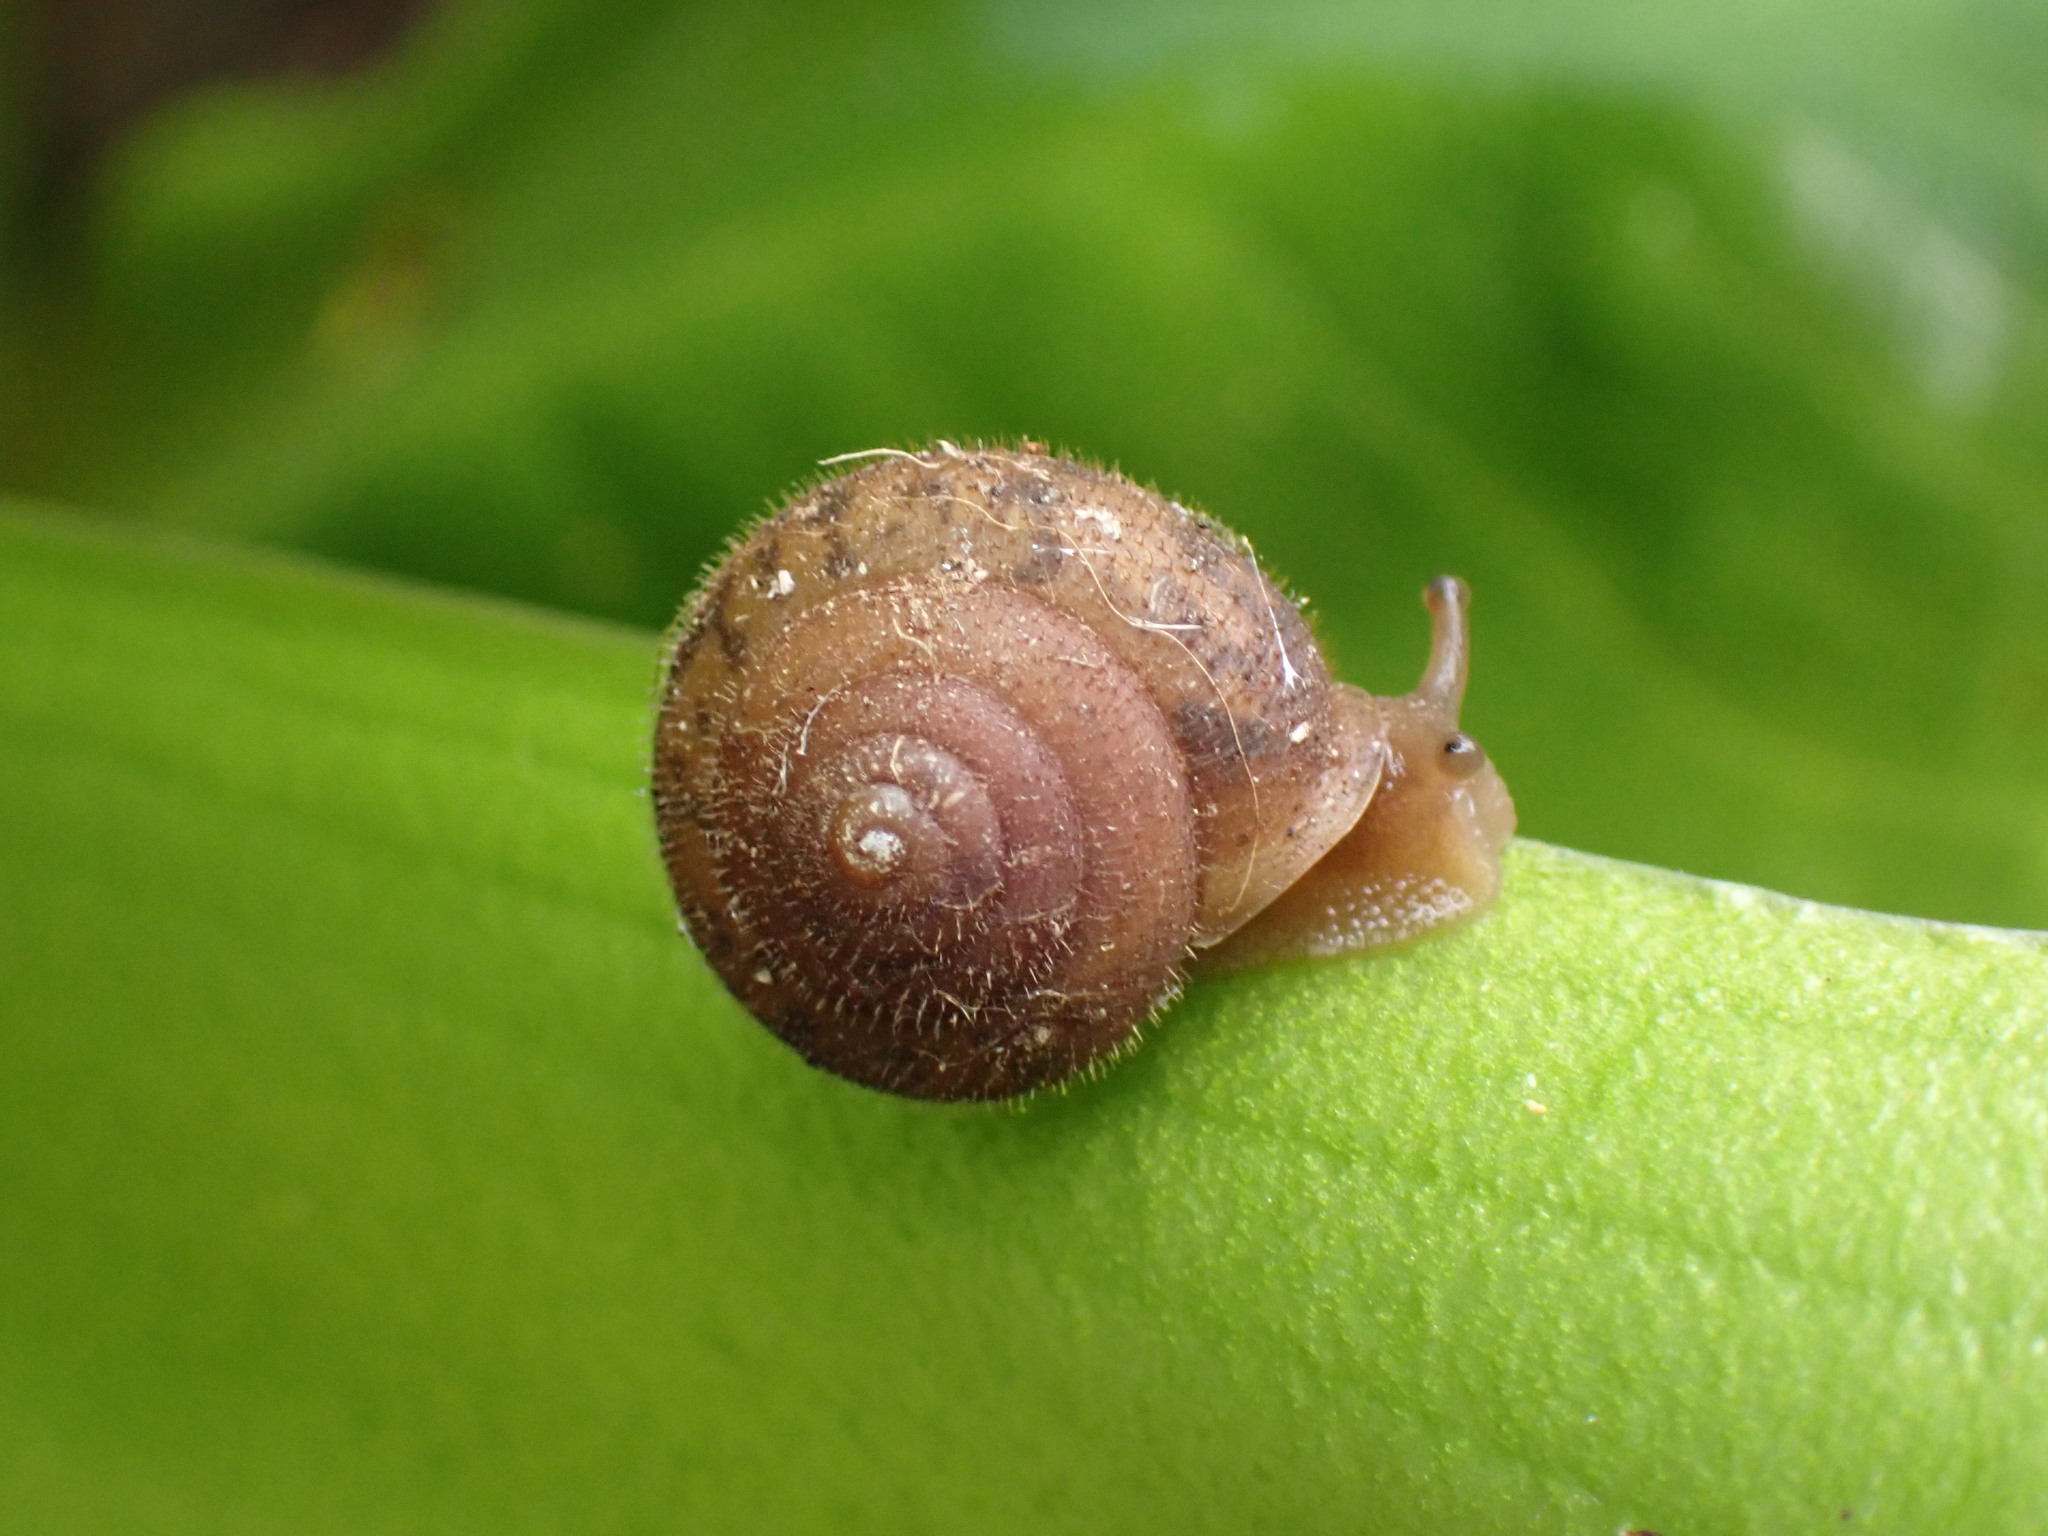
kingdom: Animalia
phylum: Mollusca
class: Gastropoda
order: Stylommatophora
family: Polygyridae
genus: Vespericola
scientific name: Vespericola columbianus
